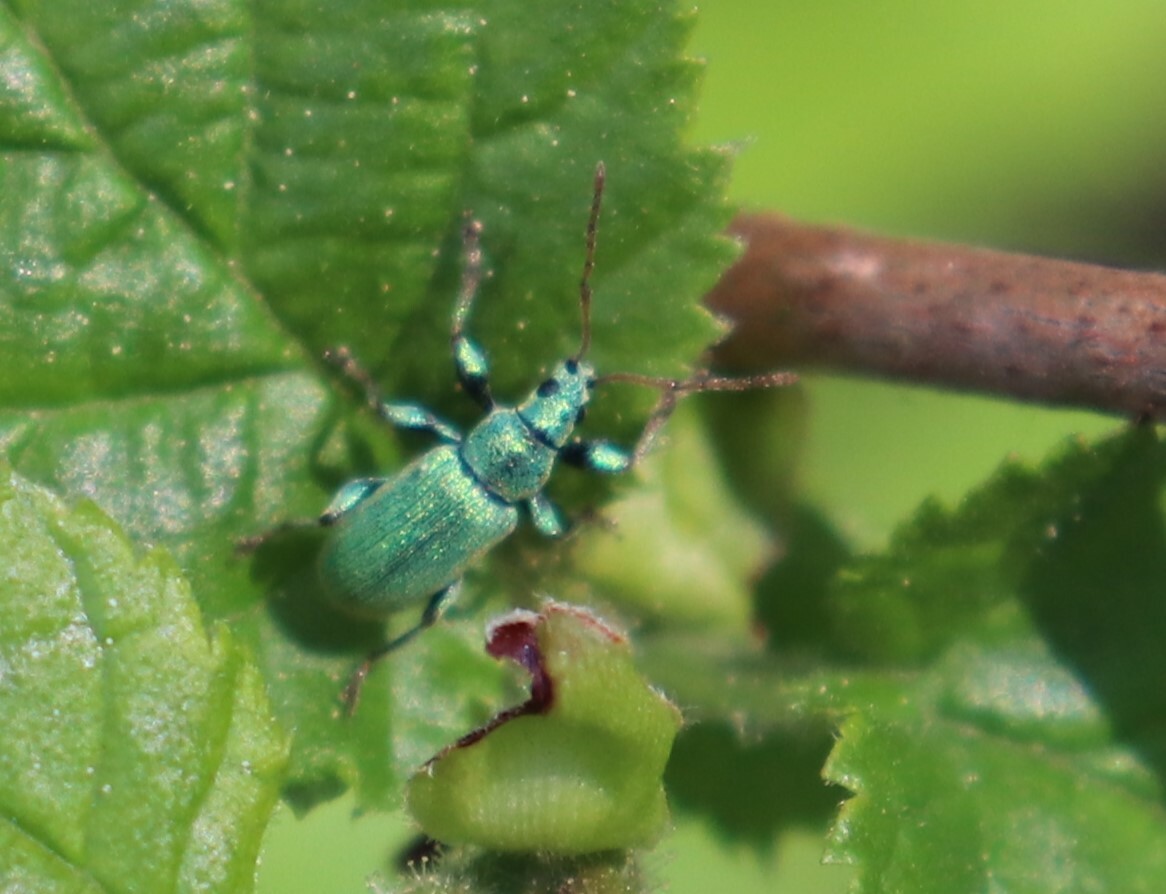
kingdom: Animalia
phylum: Arthropoda
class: Insecta
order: Coleoptera
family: Curculionidae
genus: Phyllobius
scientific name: Phyllobius argentatus
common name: Silver-green leaf weevil
